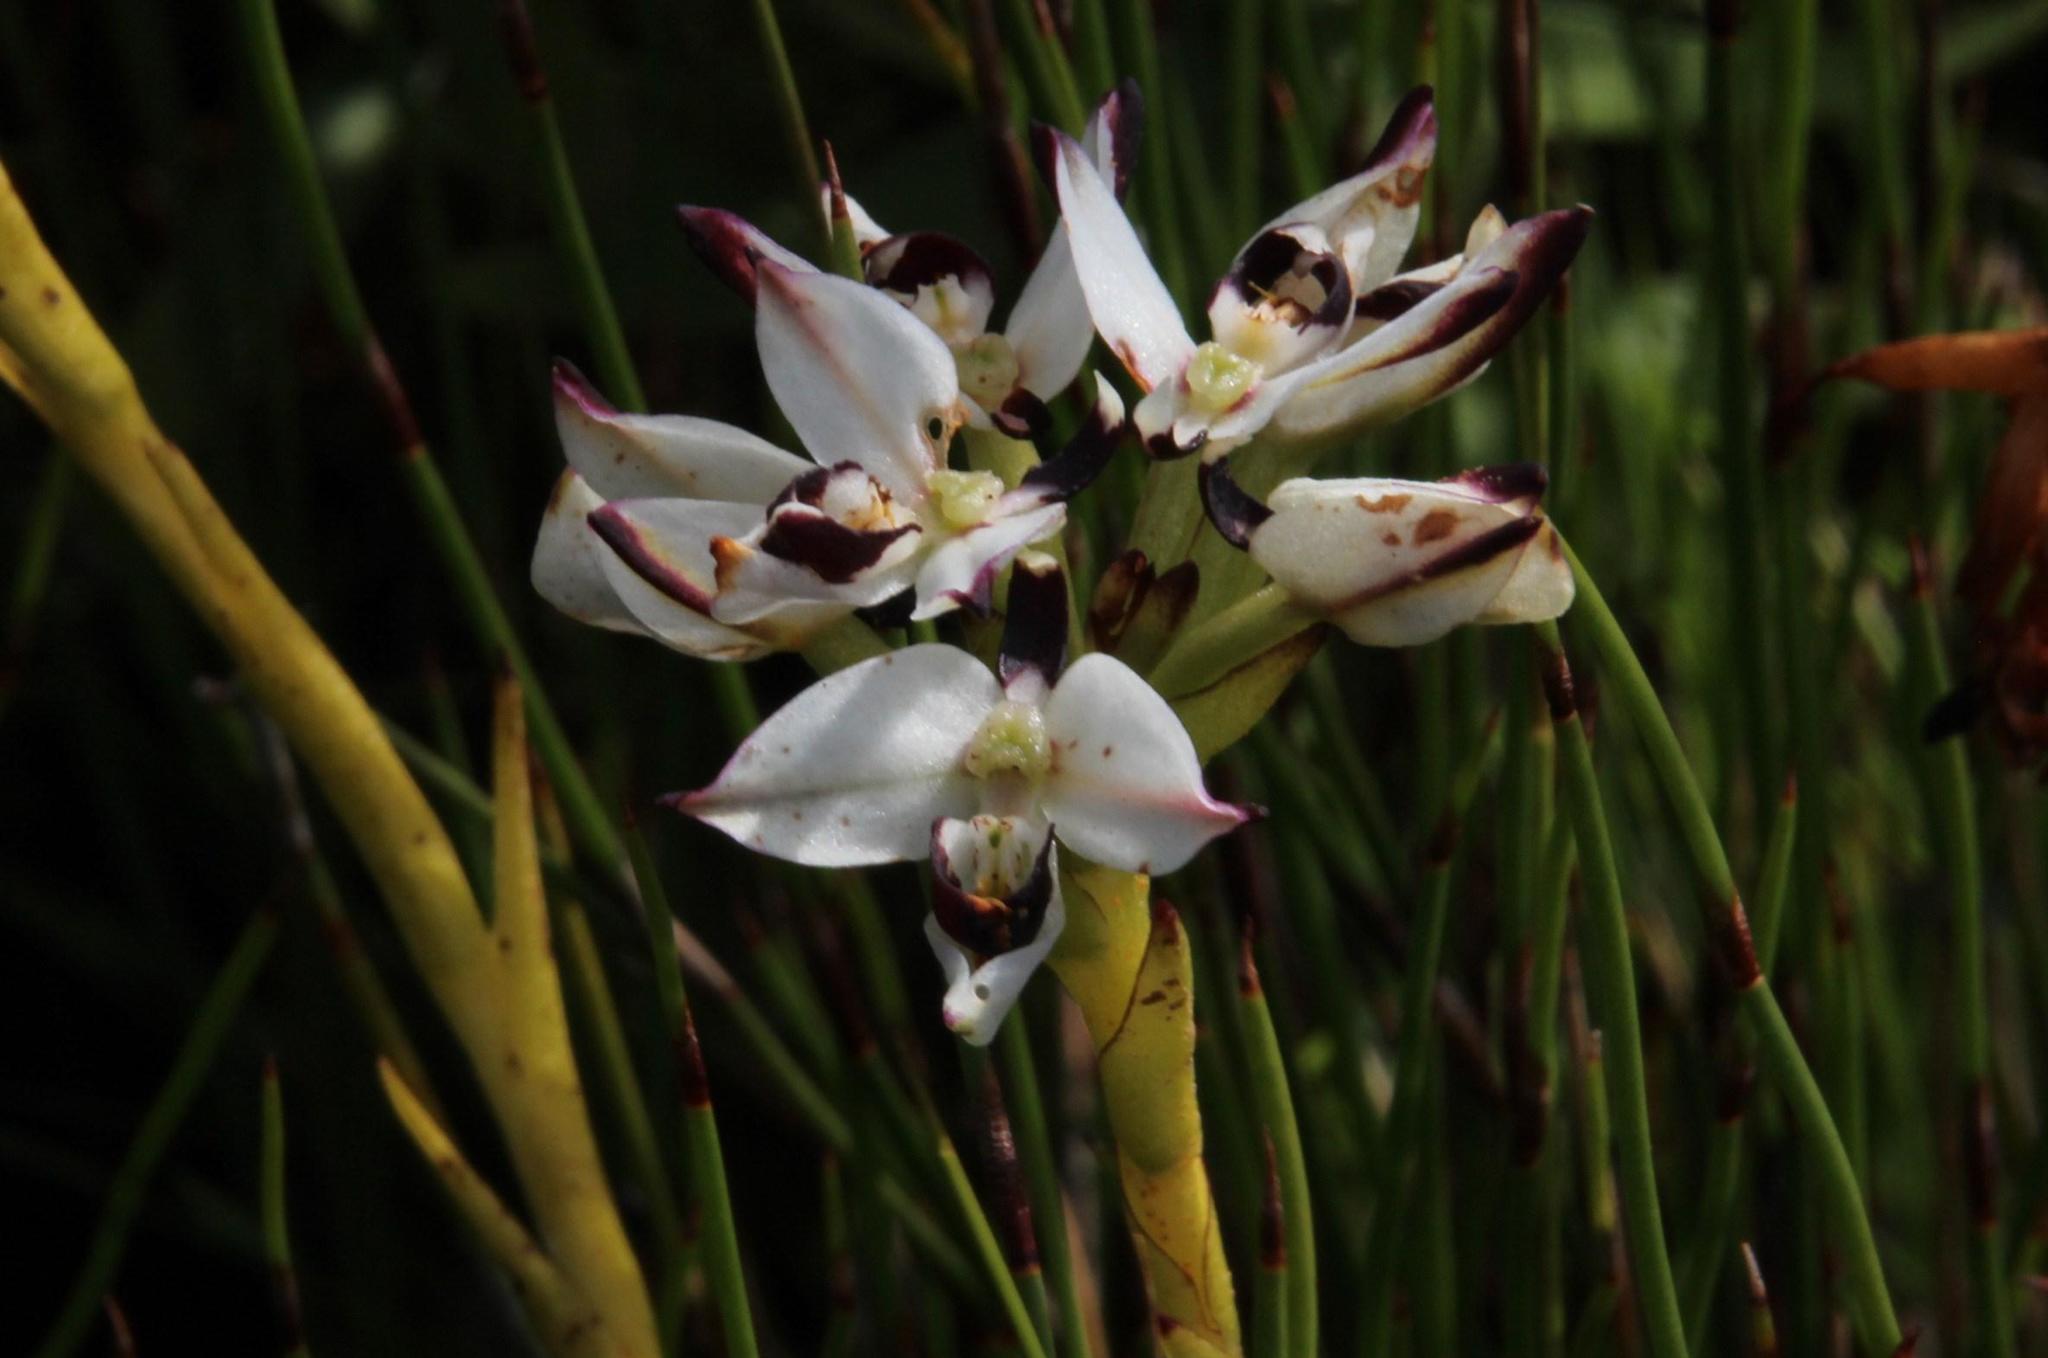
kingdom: Plantae
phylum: Tracheophyta
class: Liliopsida
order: Asparagales
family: Orchidaceae
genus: Disa
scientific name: Disa bivalvata
